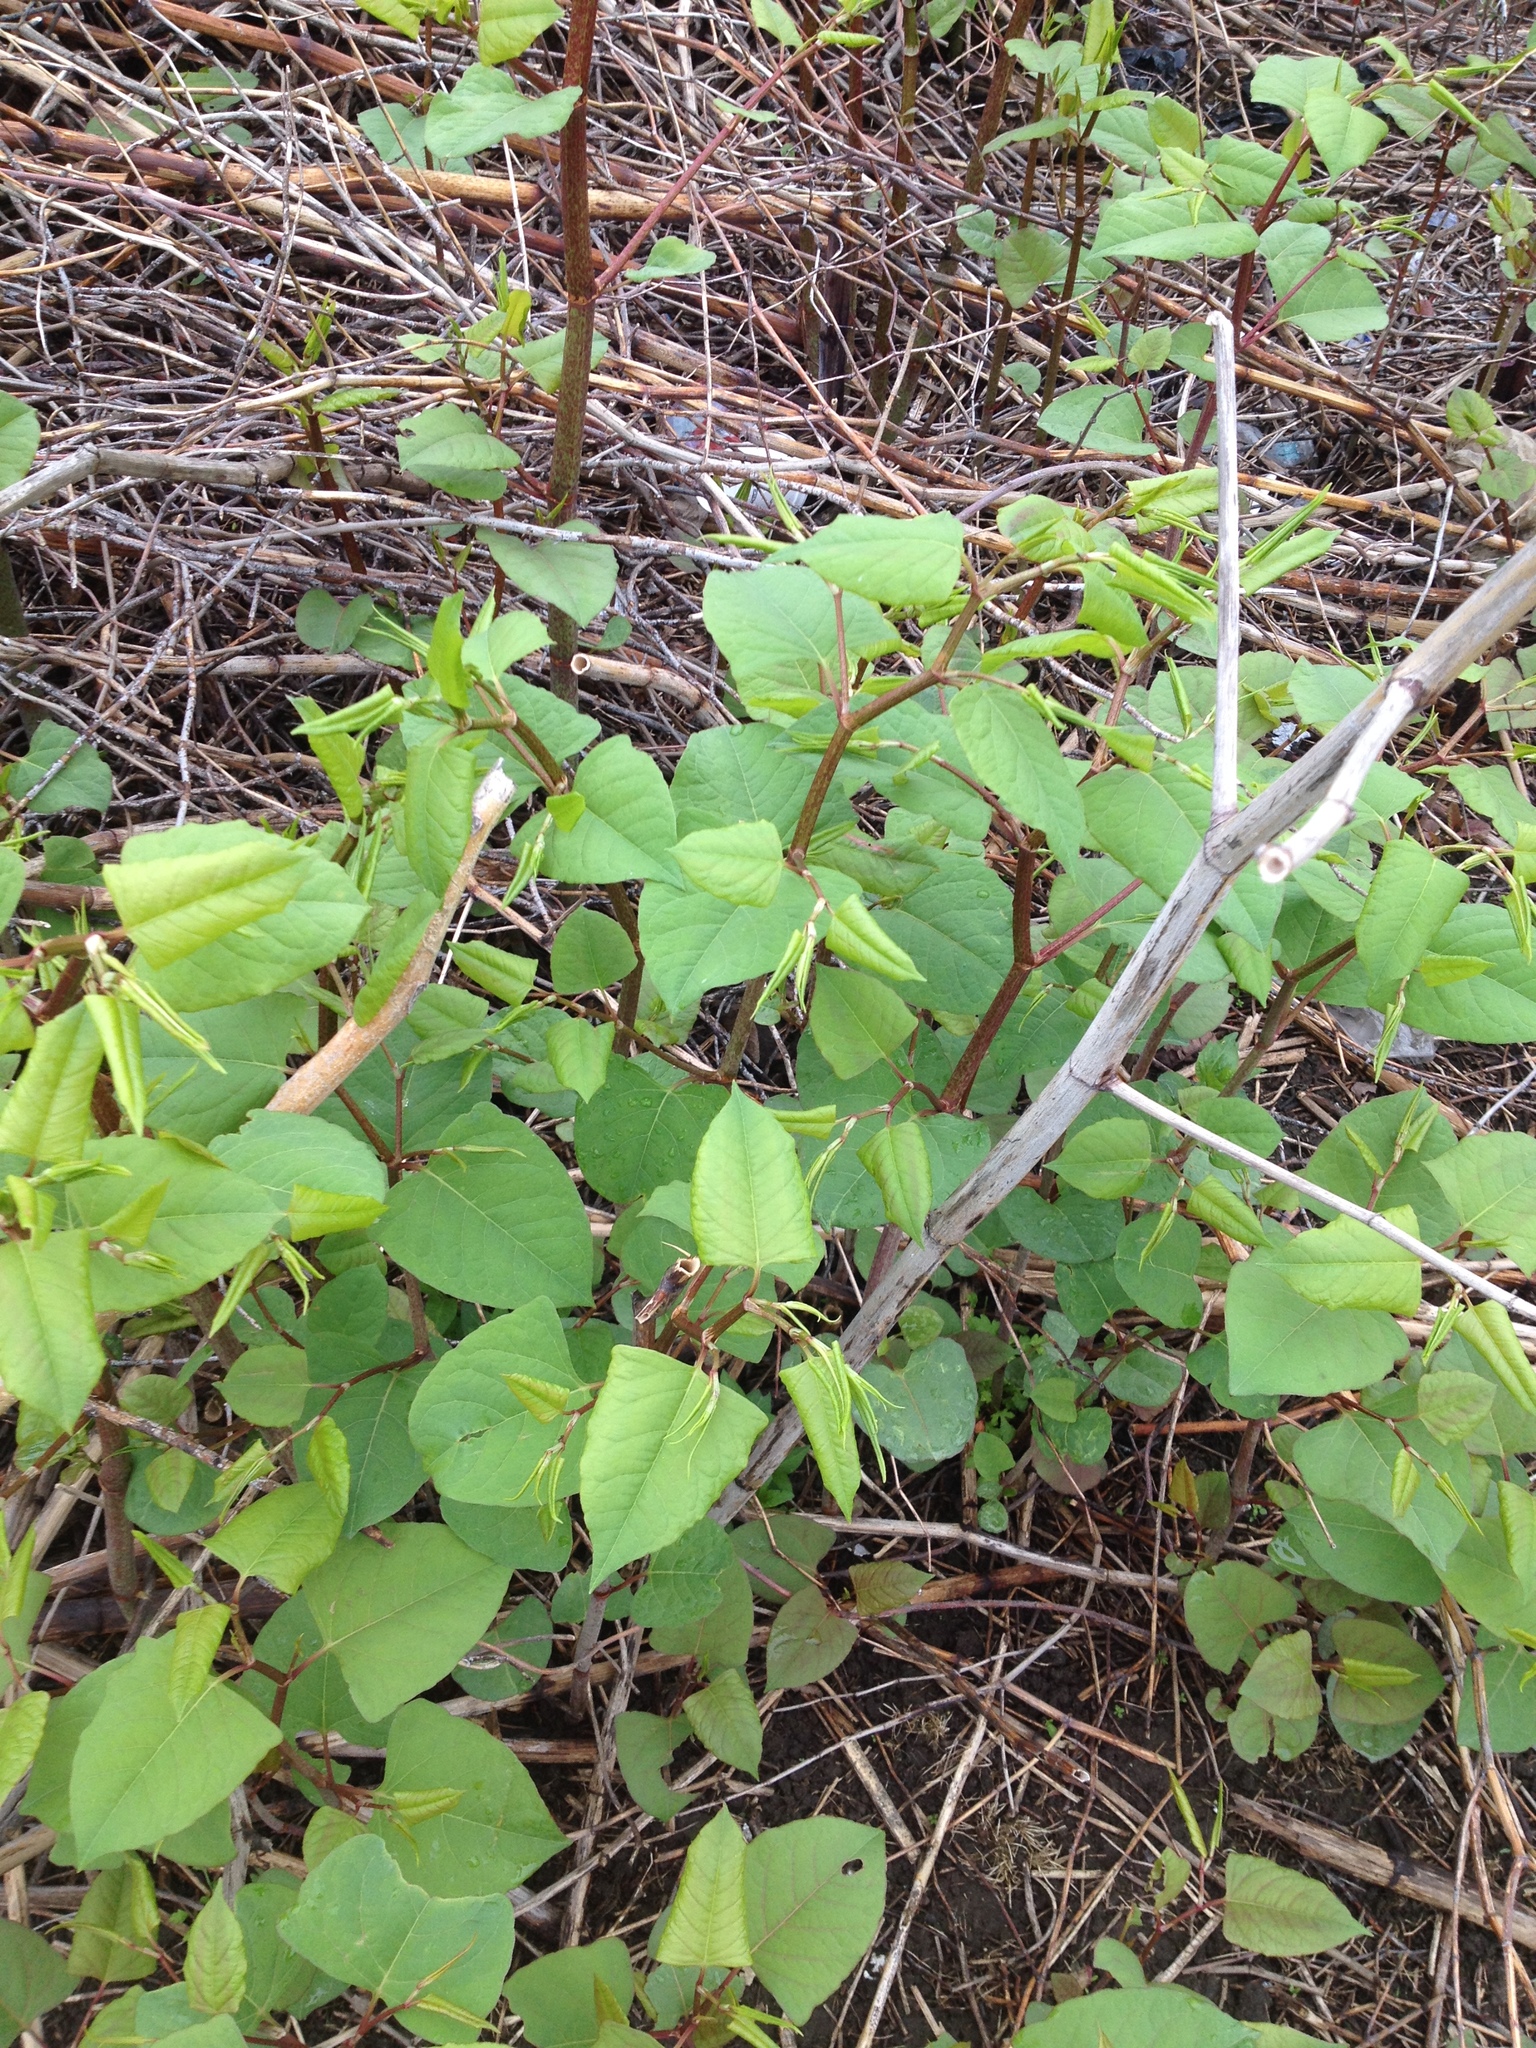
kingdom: Plantae
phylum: Tracheophyta
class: Magnoliopsida
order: Caryophyllales
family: Polygonaceae
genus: Reynoutria
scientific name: Reynoutria japonica
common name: Japanese knotweed
